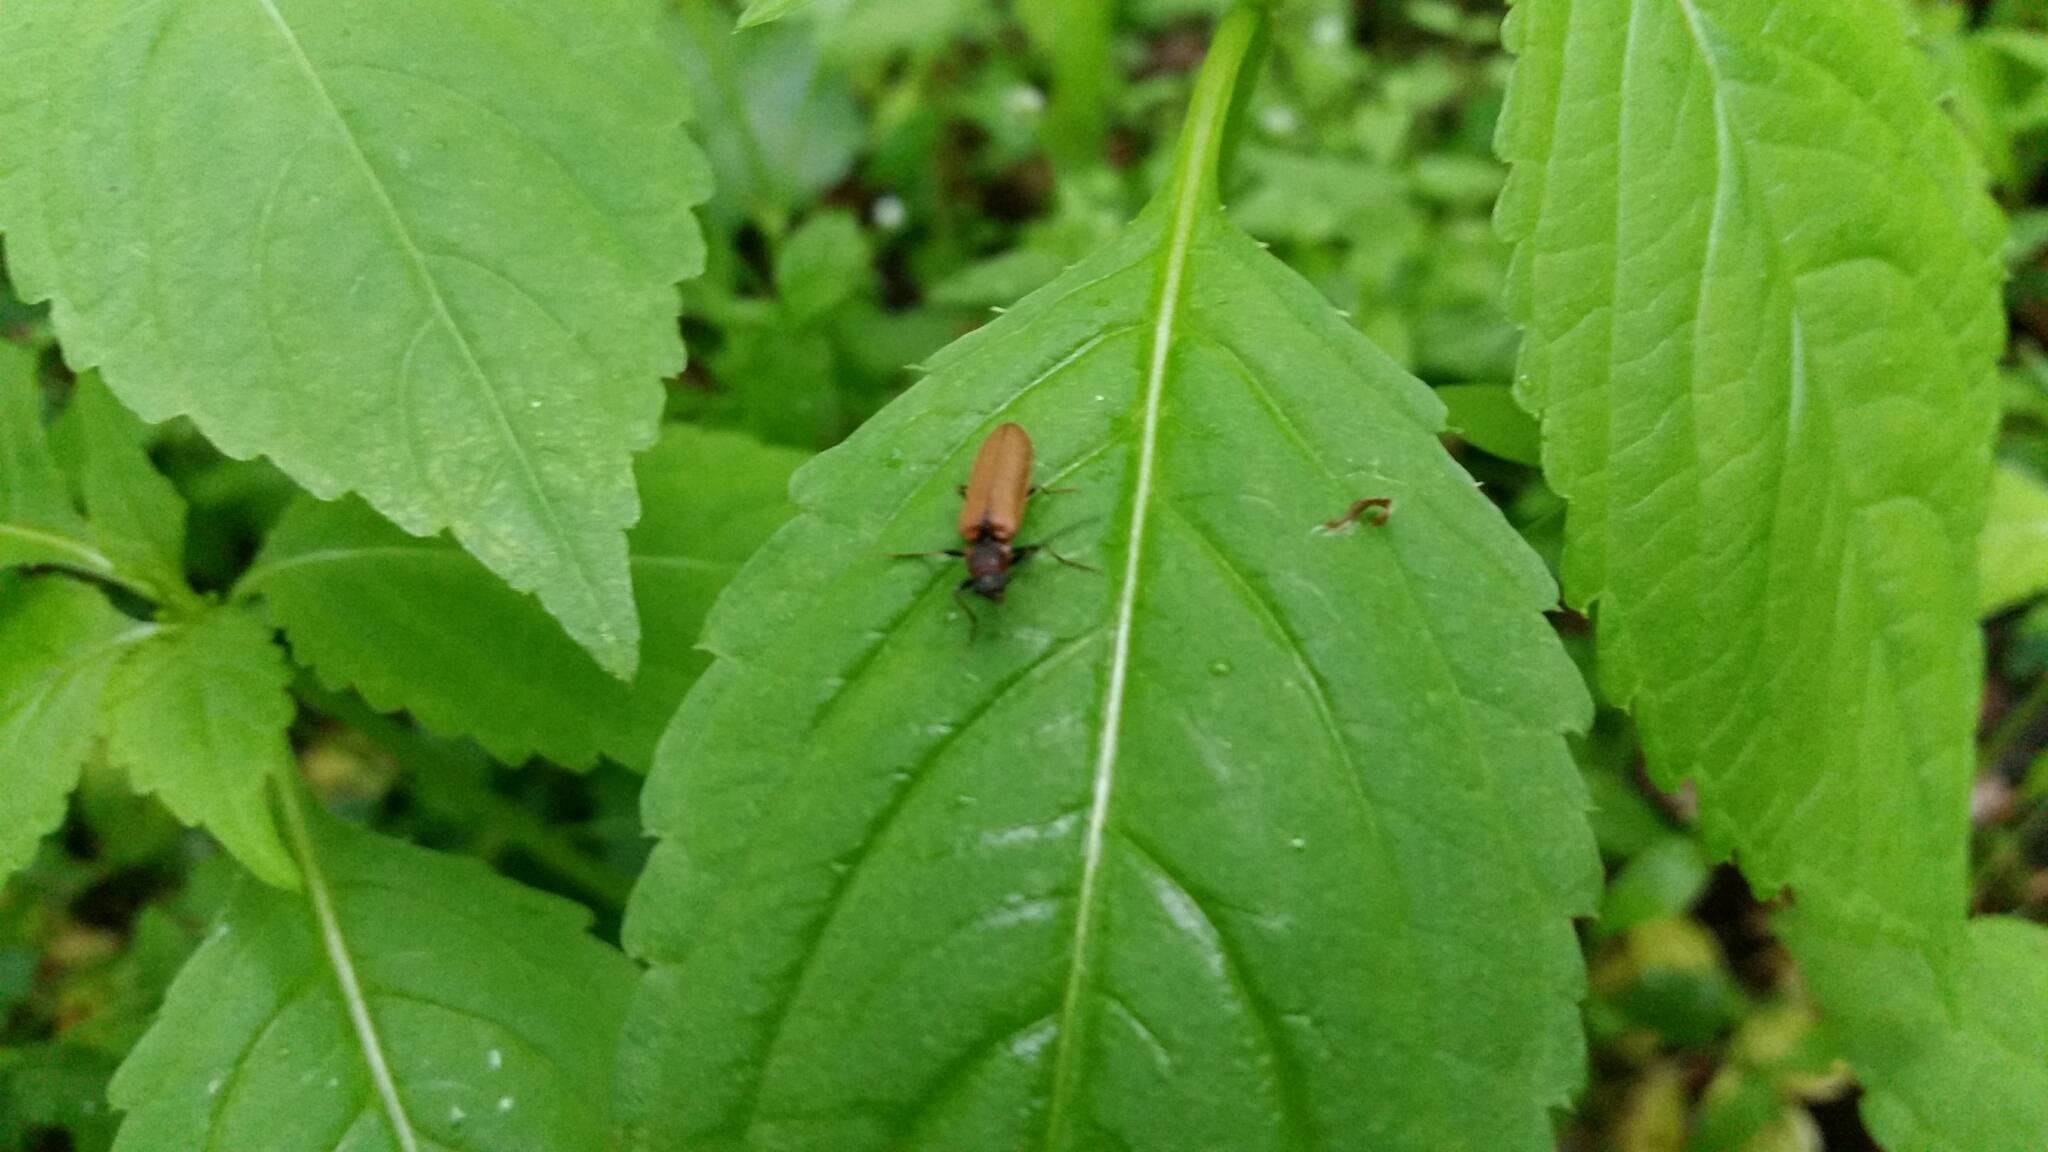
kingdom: Animalia
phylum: Arthropoda
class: Insecta
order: Coleoptera
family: Elateridae
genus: Denticollis
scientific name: Denticollis linearis
